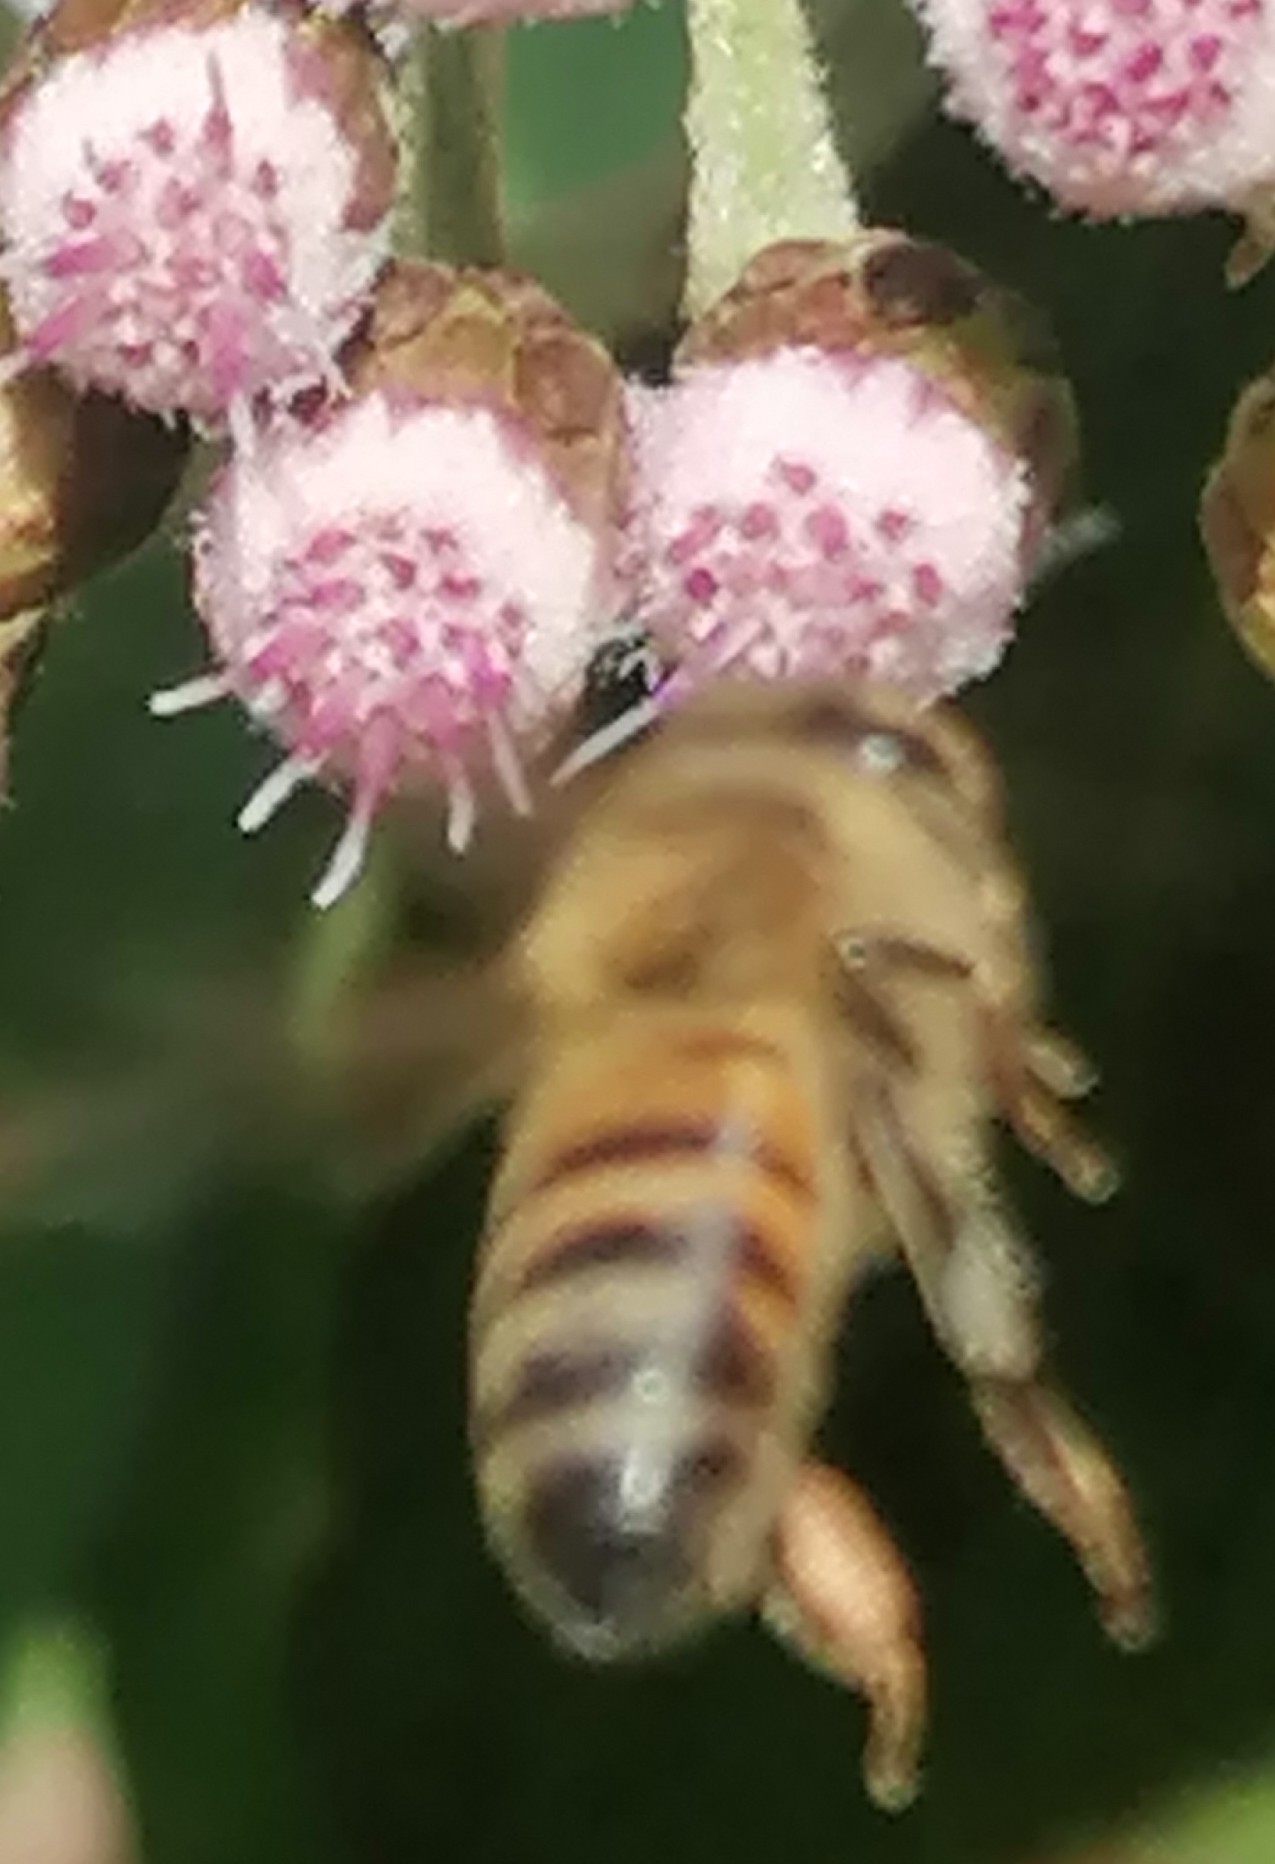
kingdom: Animalia
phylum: Arthropoda
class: Insecta
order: Hymenoptera
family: Apidae
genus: Apis
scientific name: Apis mellifera
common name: Honey bee
